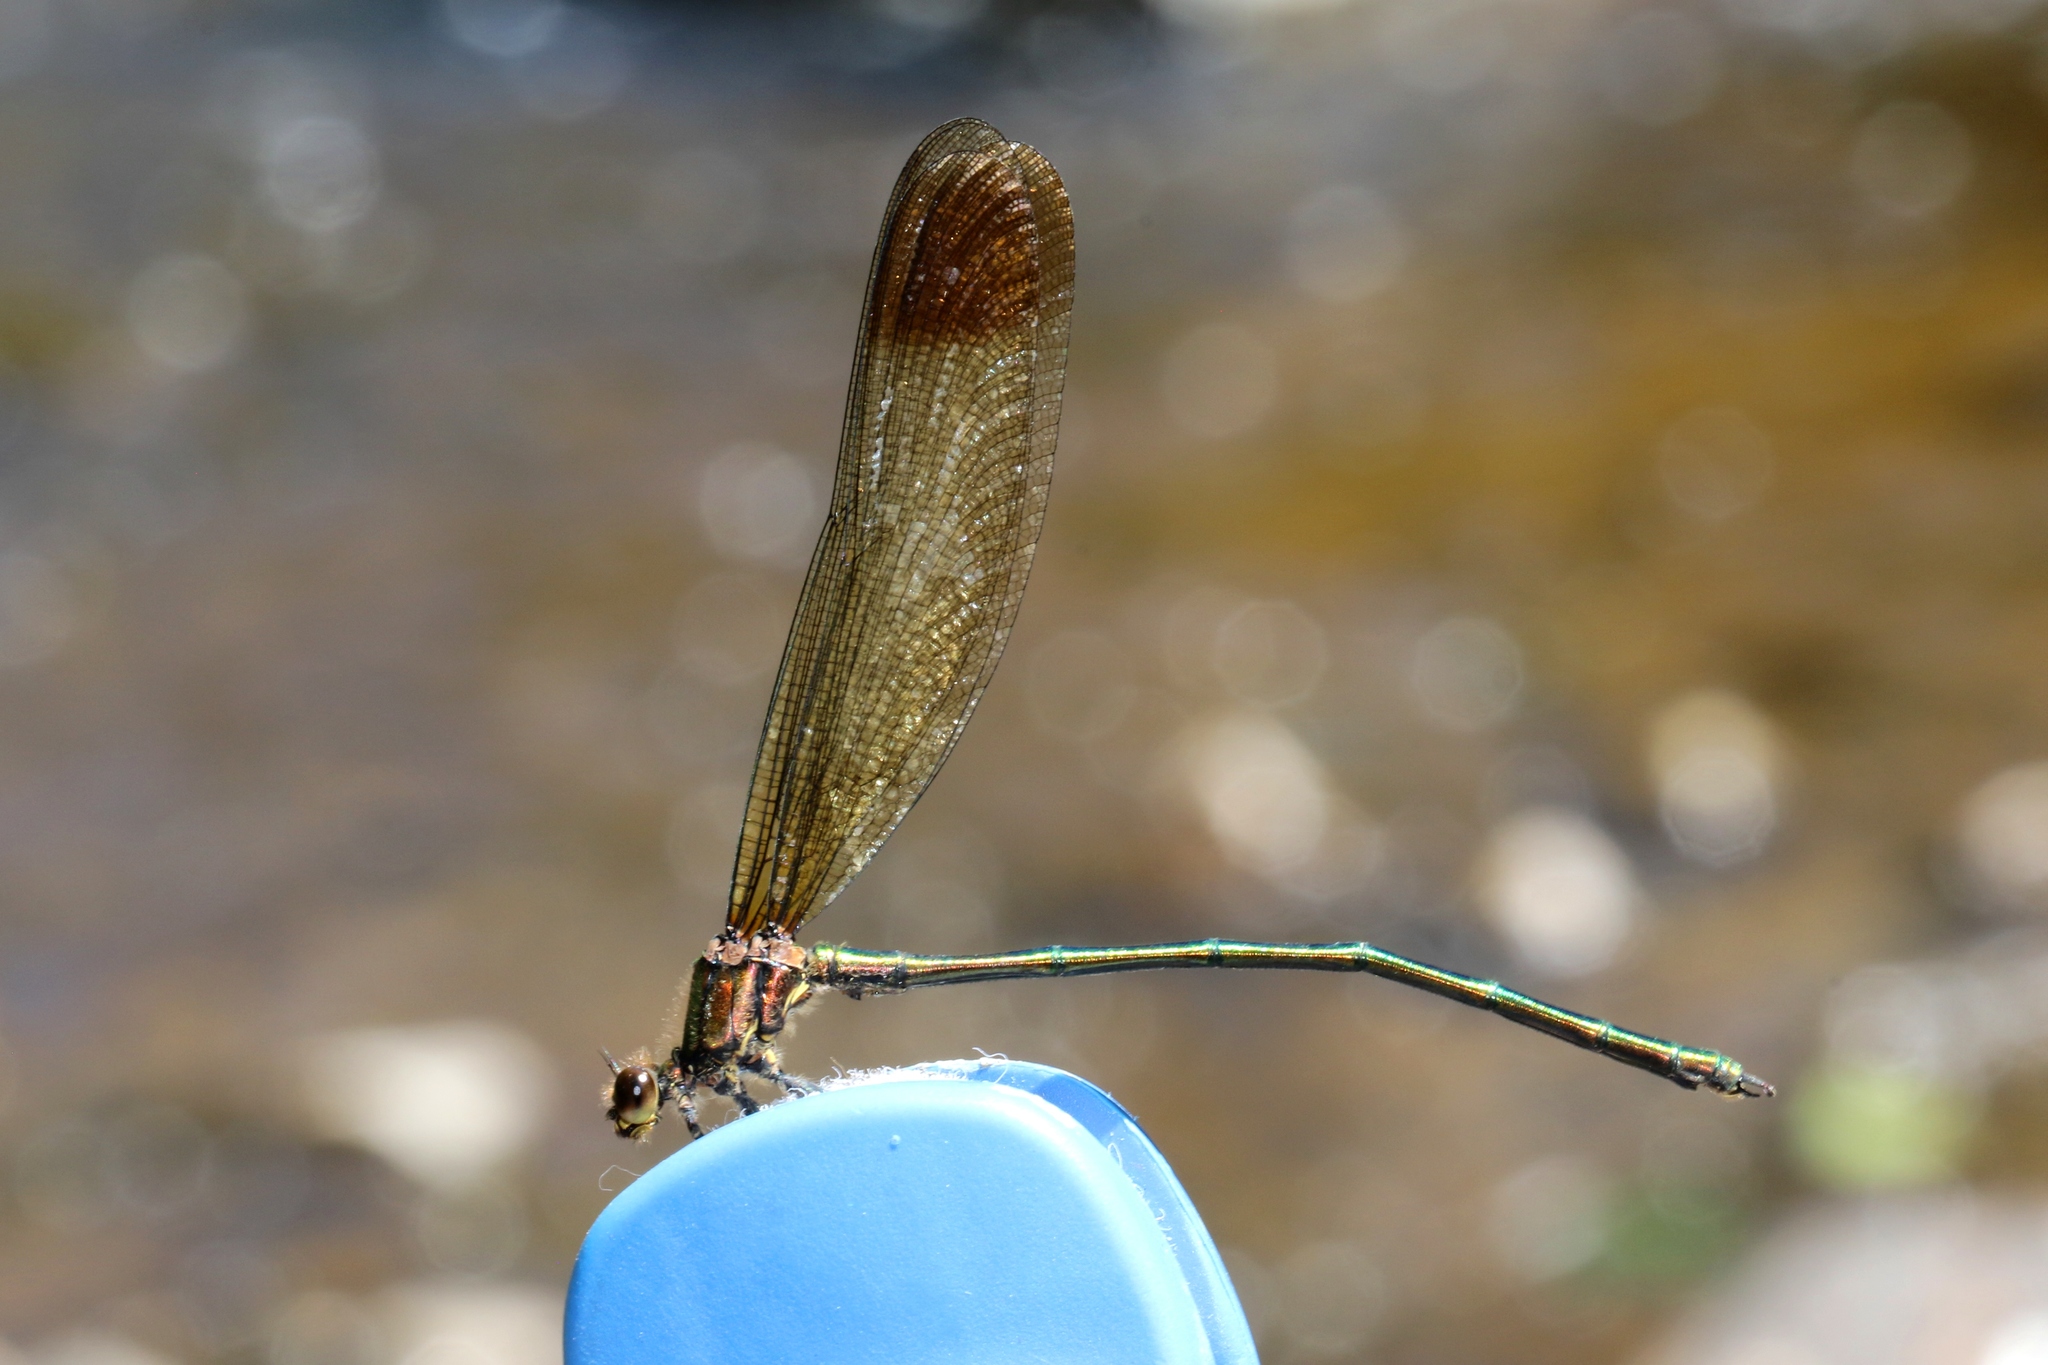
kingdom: Animalia
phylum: Arthropoda
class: Insecta
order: Odonata
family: Calopterygidae
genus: Calopteryx
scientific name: Calopteryx amata
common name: Superb jewelwing
